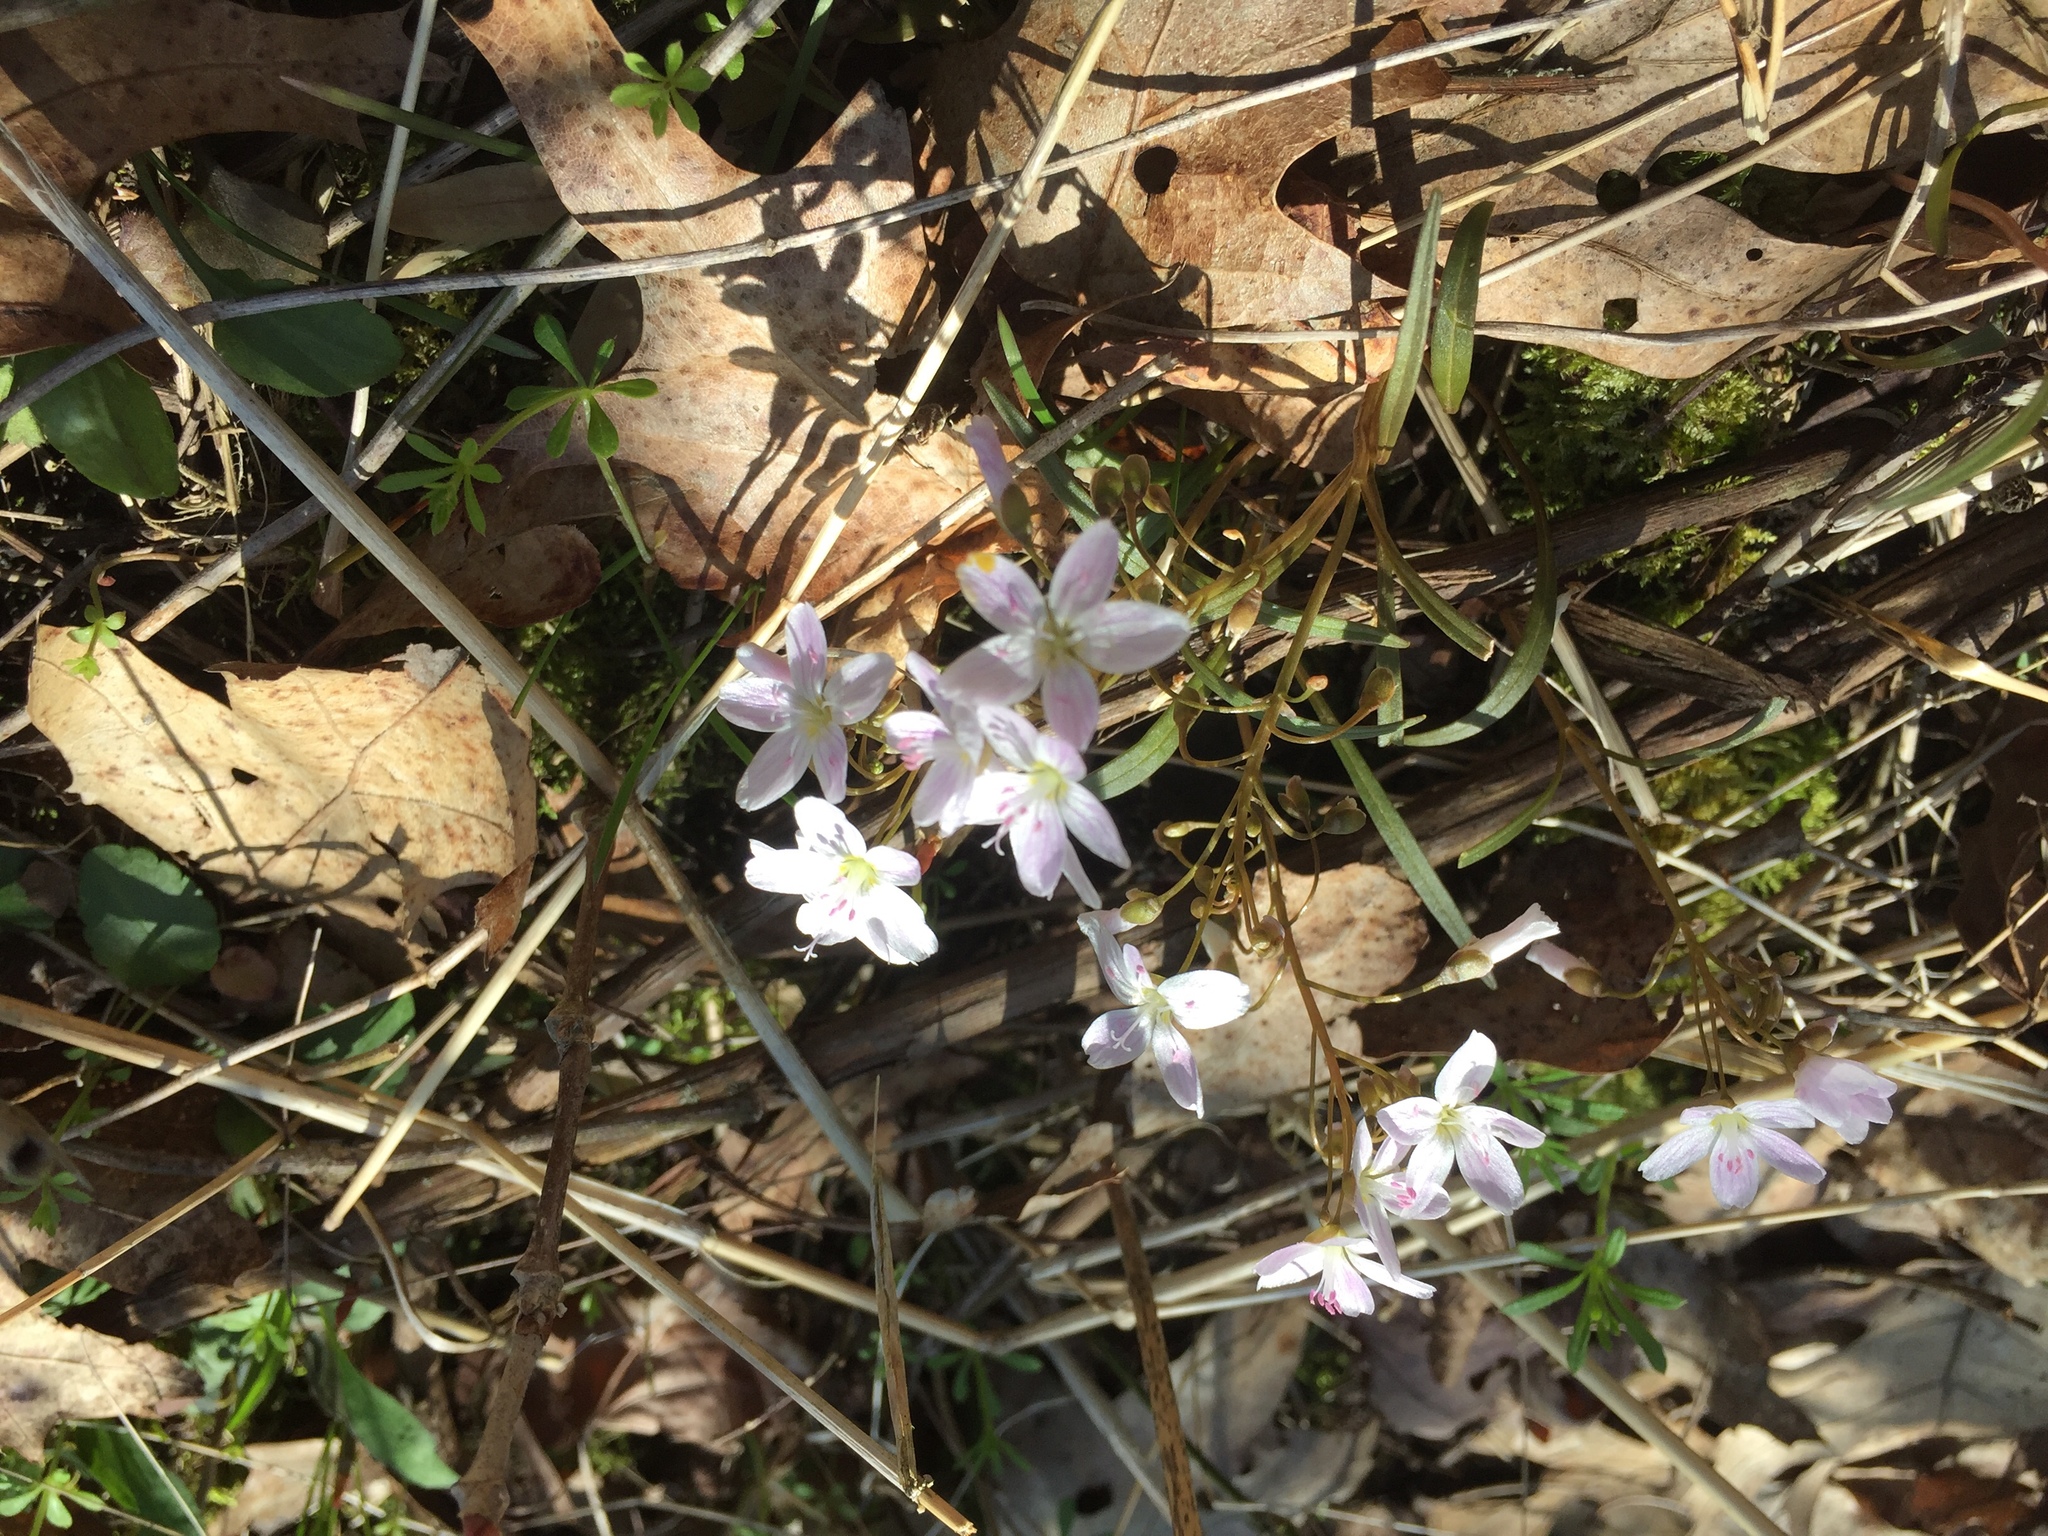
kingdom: Plantae
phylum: Tracheophyta
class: Magnoliopsida
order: Caryophyllales
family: Montiaceae
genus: Claytonia
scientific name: Claytonia virginica
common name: Virginia springbeauty
